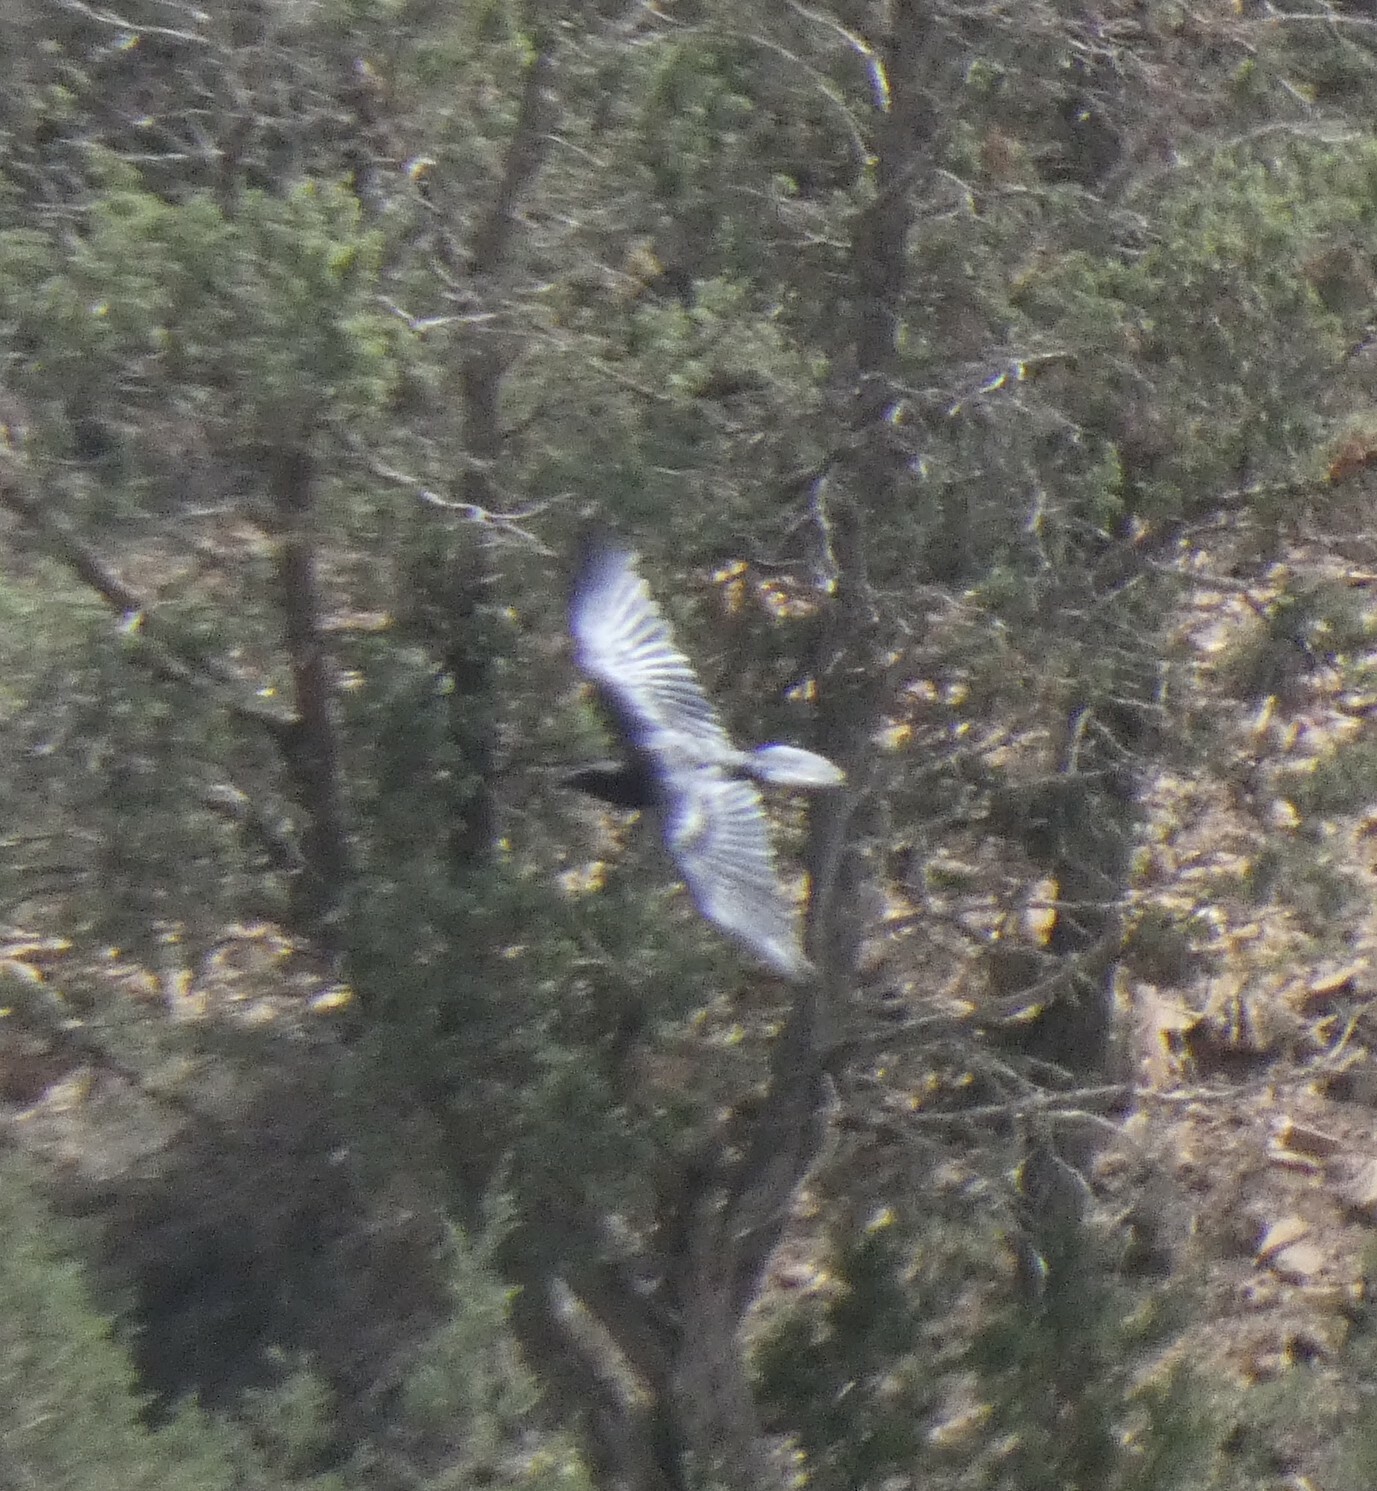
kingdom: Animalia
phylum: Chordata
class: Aves
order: Passeriformes
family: Corvidae
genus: Corvus
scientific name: Corvus corax
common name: Common raven
